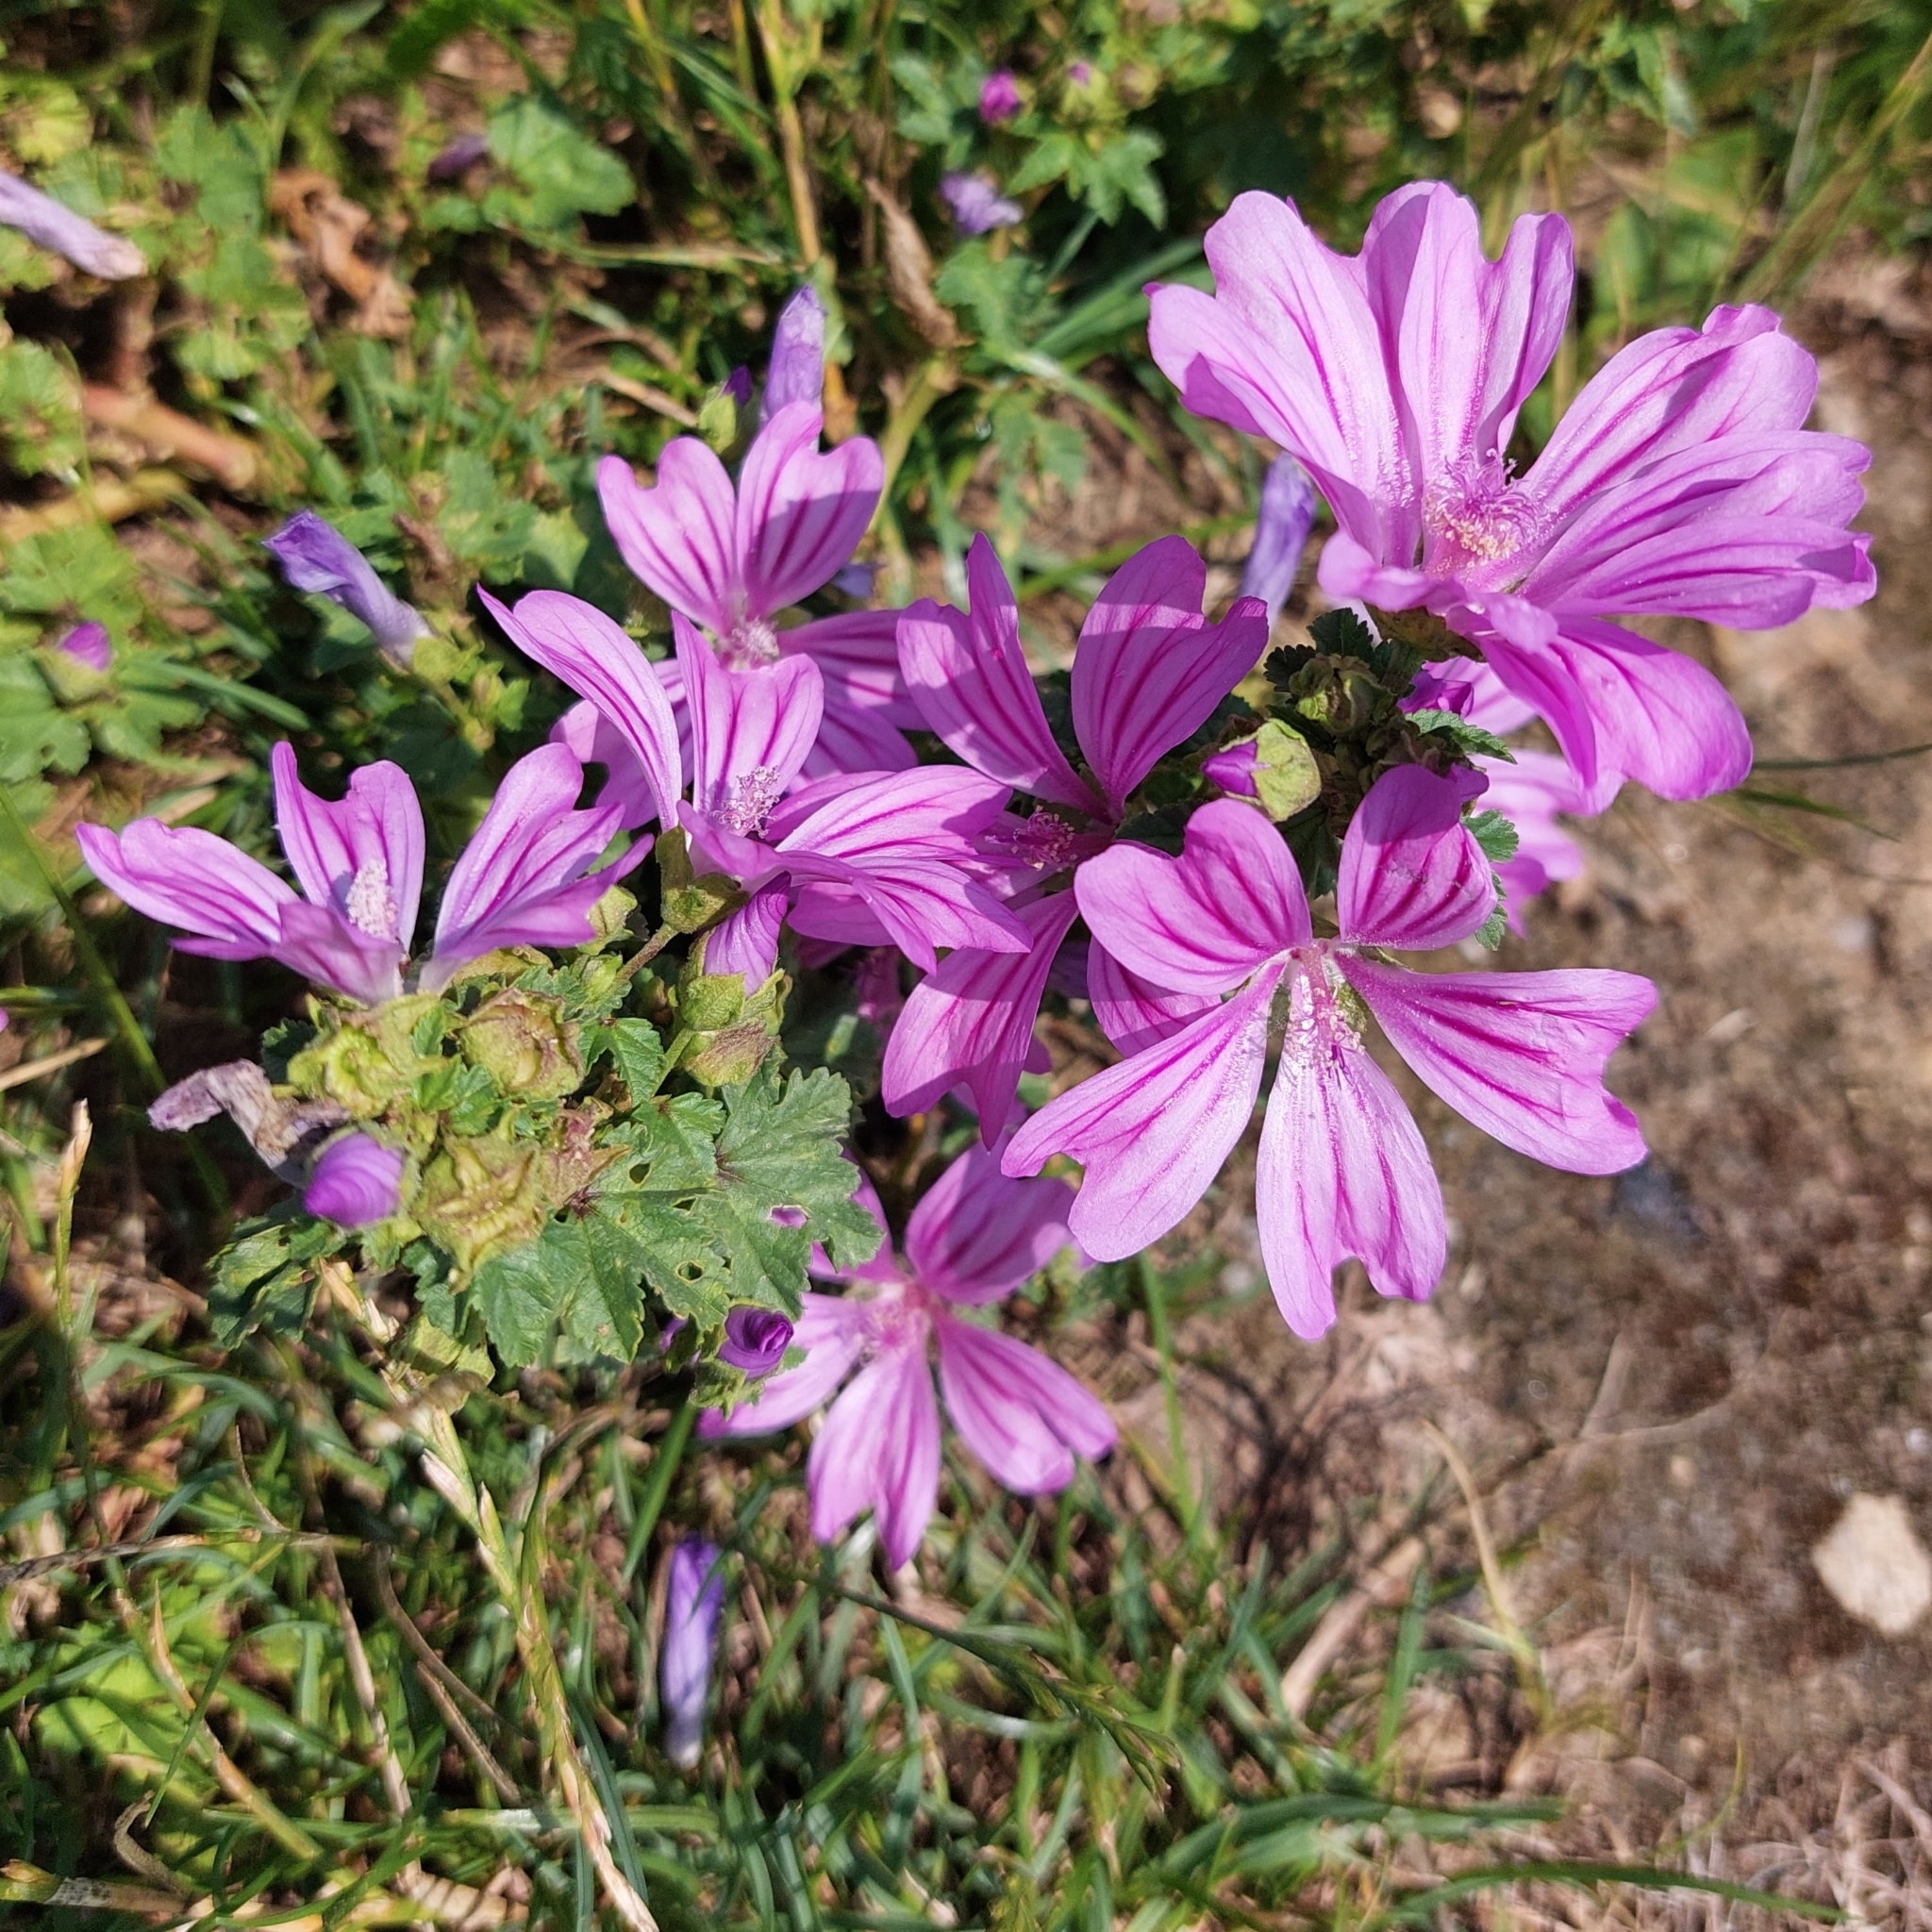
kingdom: Plantae
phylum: Tracheophyta
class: Magnoliopsida
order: Malvales
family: Malvaceae
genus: Malva
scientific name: Malva sylvestris
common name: Common mallow
